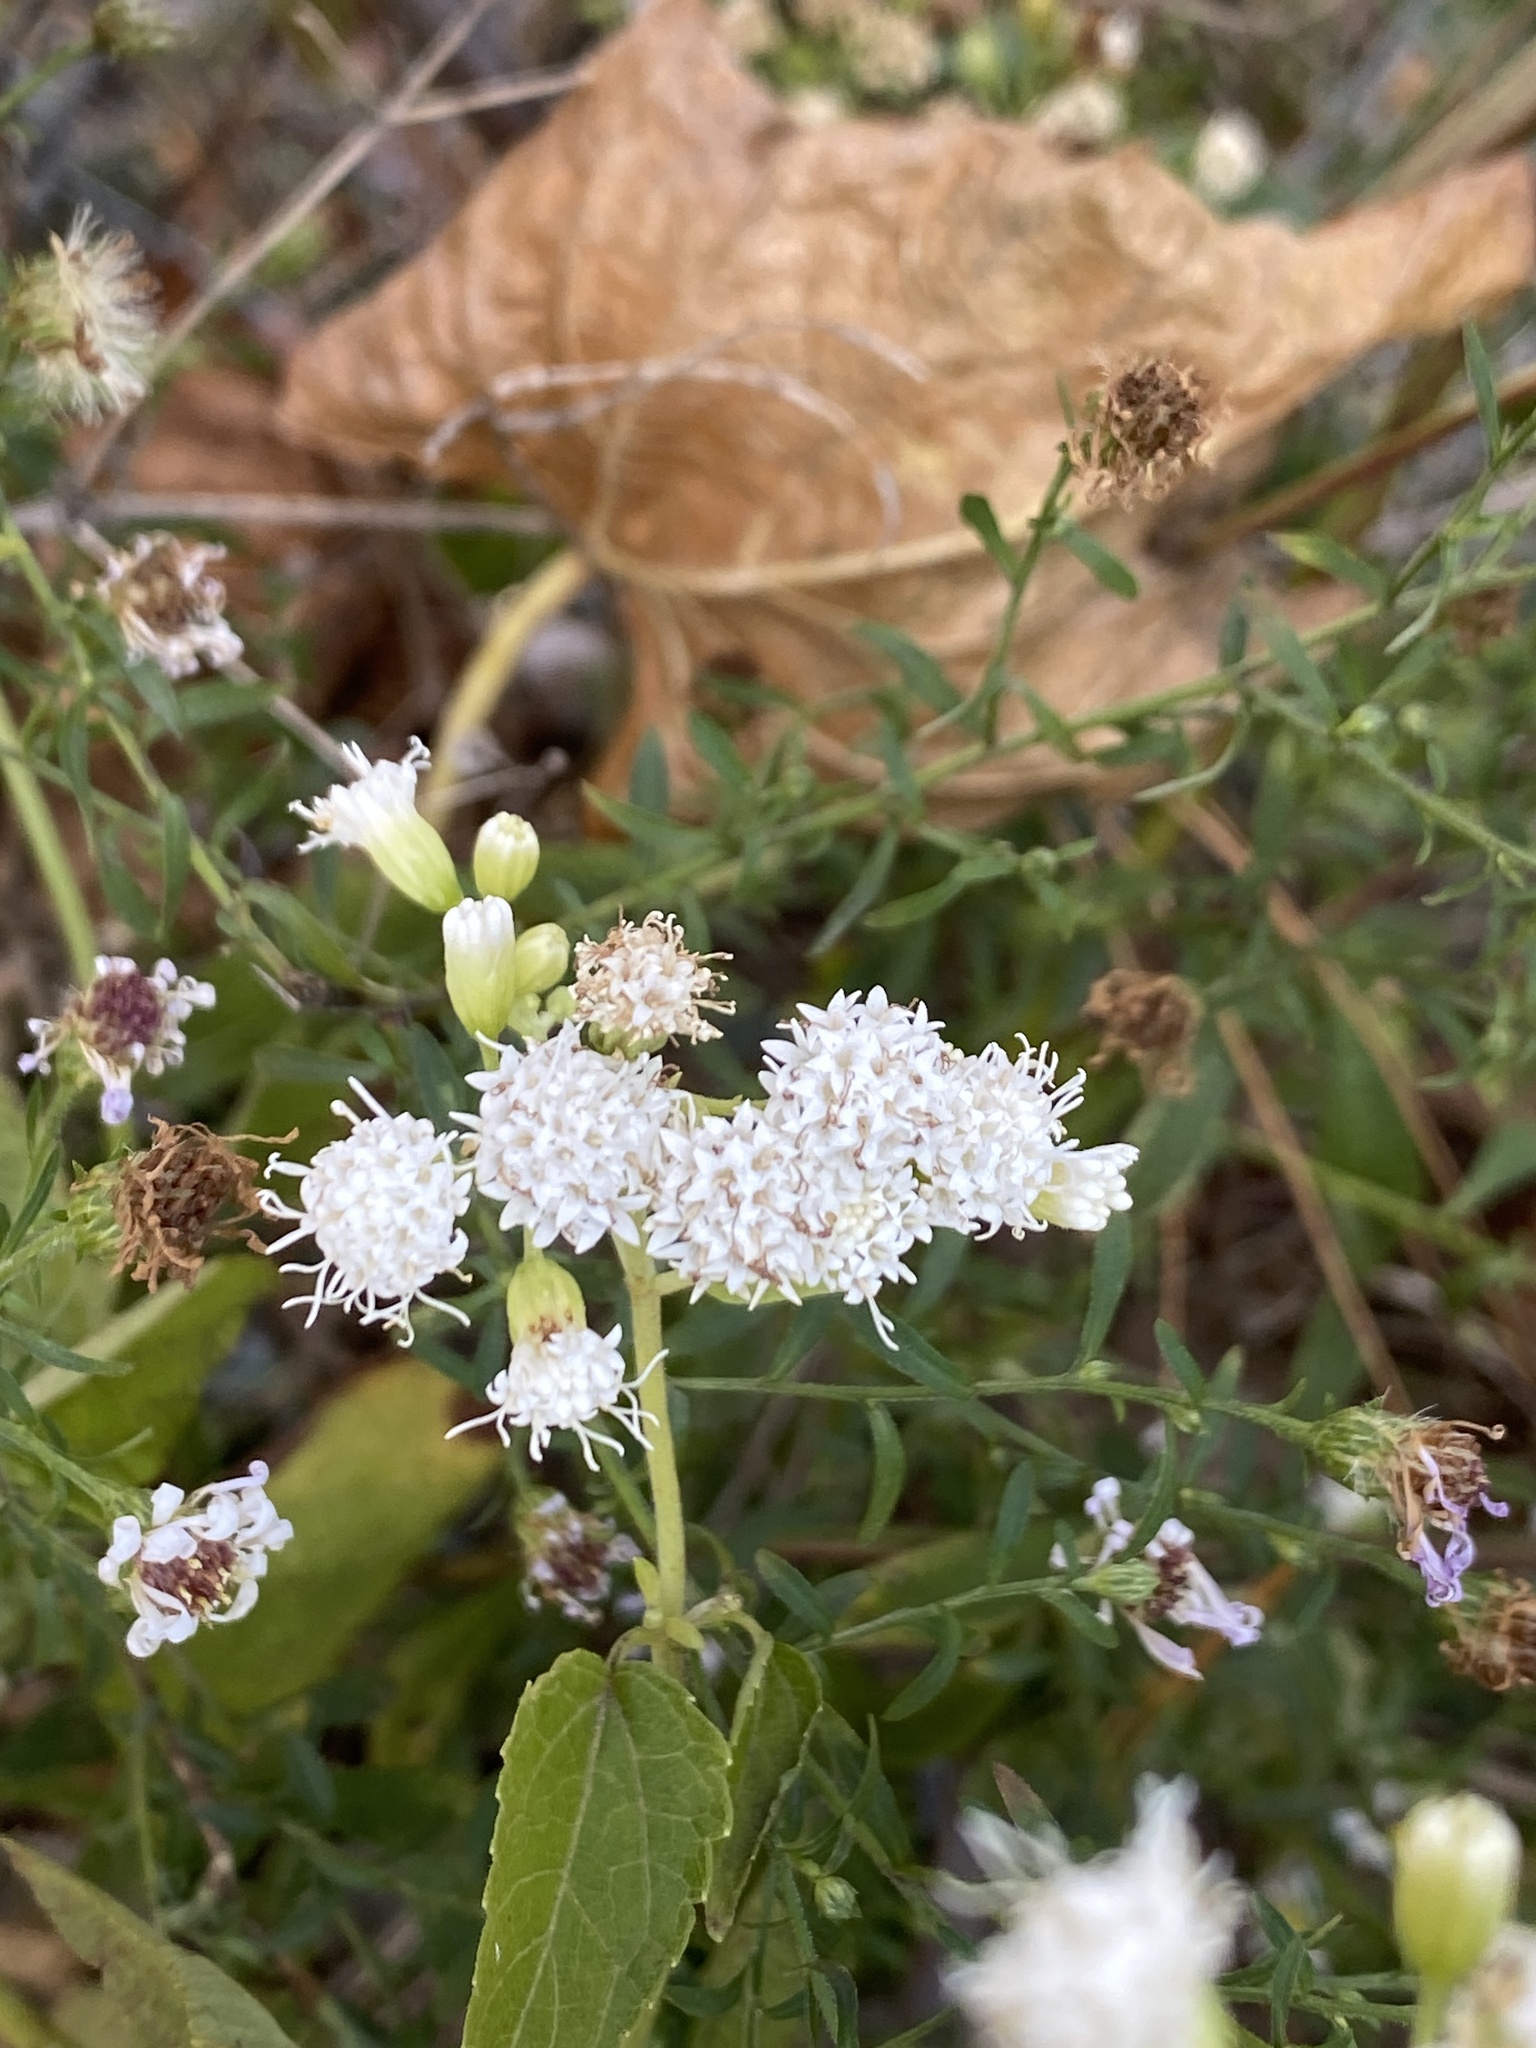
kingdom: Plantae
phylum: Tracheophyta
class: Magnoliopsida
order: Asterales
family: Asteraceae
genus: Ageratina
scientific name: Ageratina altissima
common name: White snakeroot
